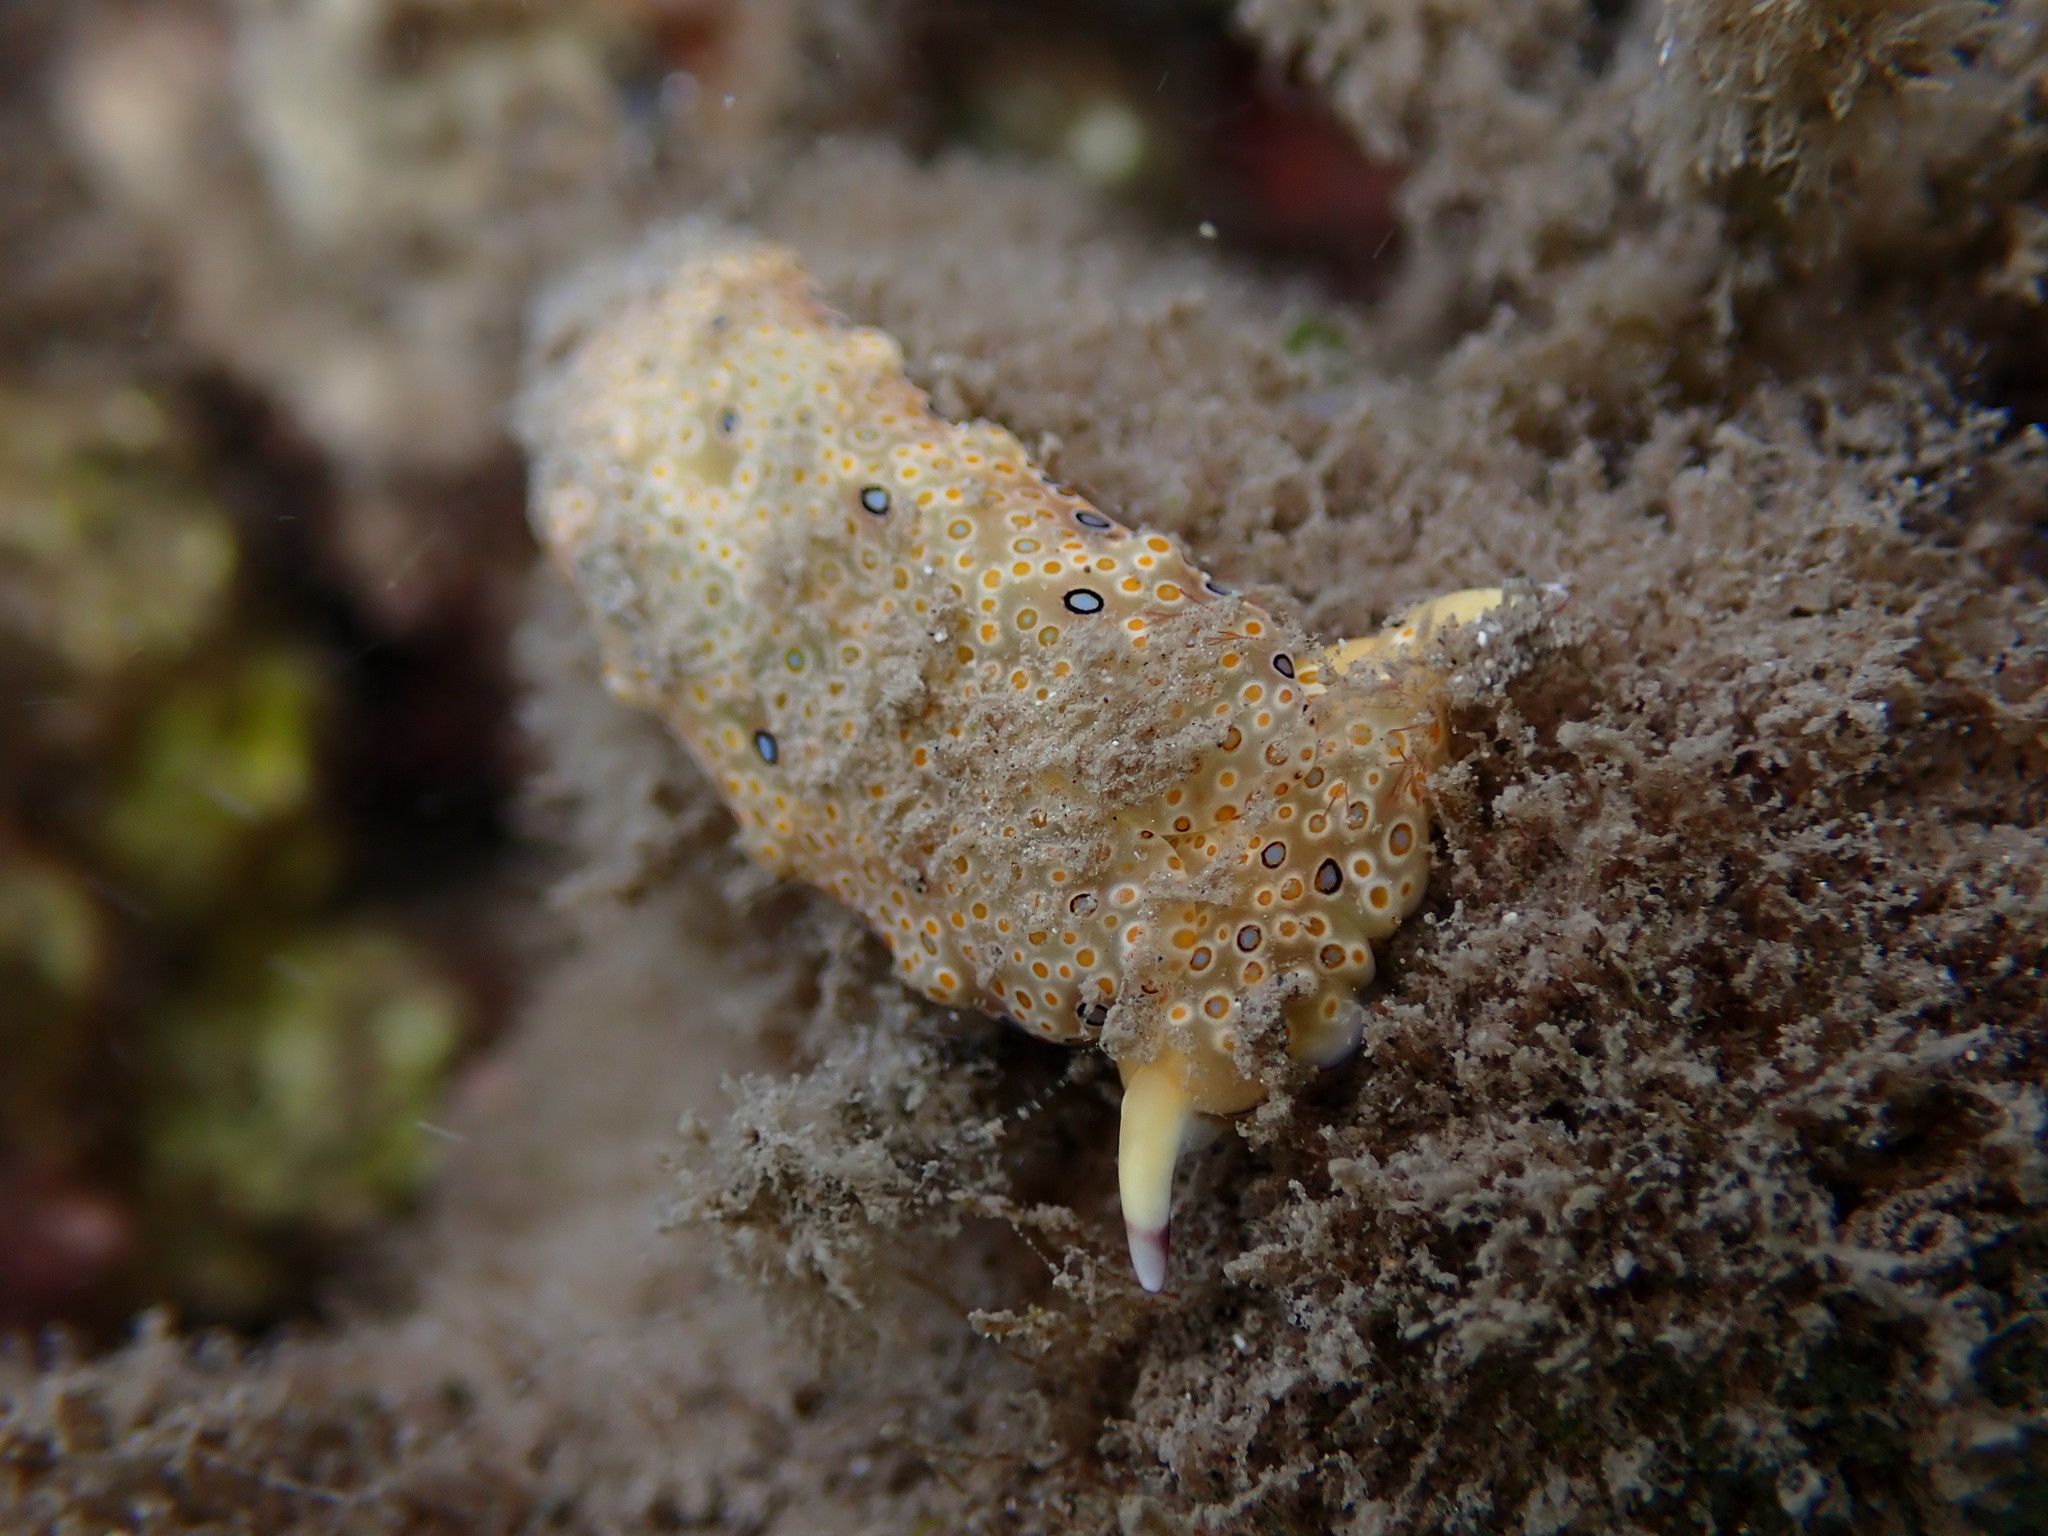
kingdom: Animalia
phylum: Mollusca
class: Gastropoda
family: Plakobranchidae
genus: Plakobranchus
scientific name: Plakobranchus ocellatus
